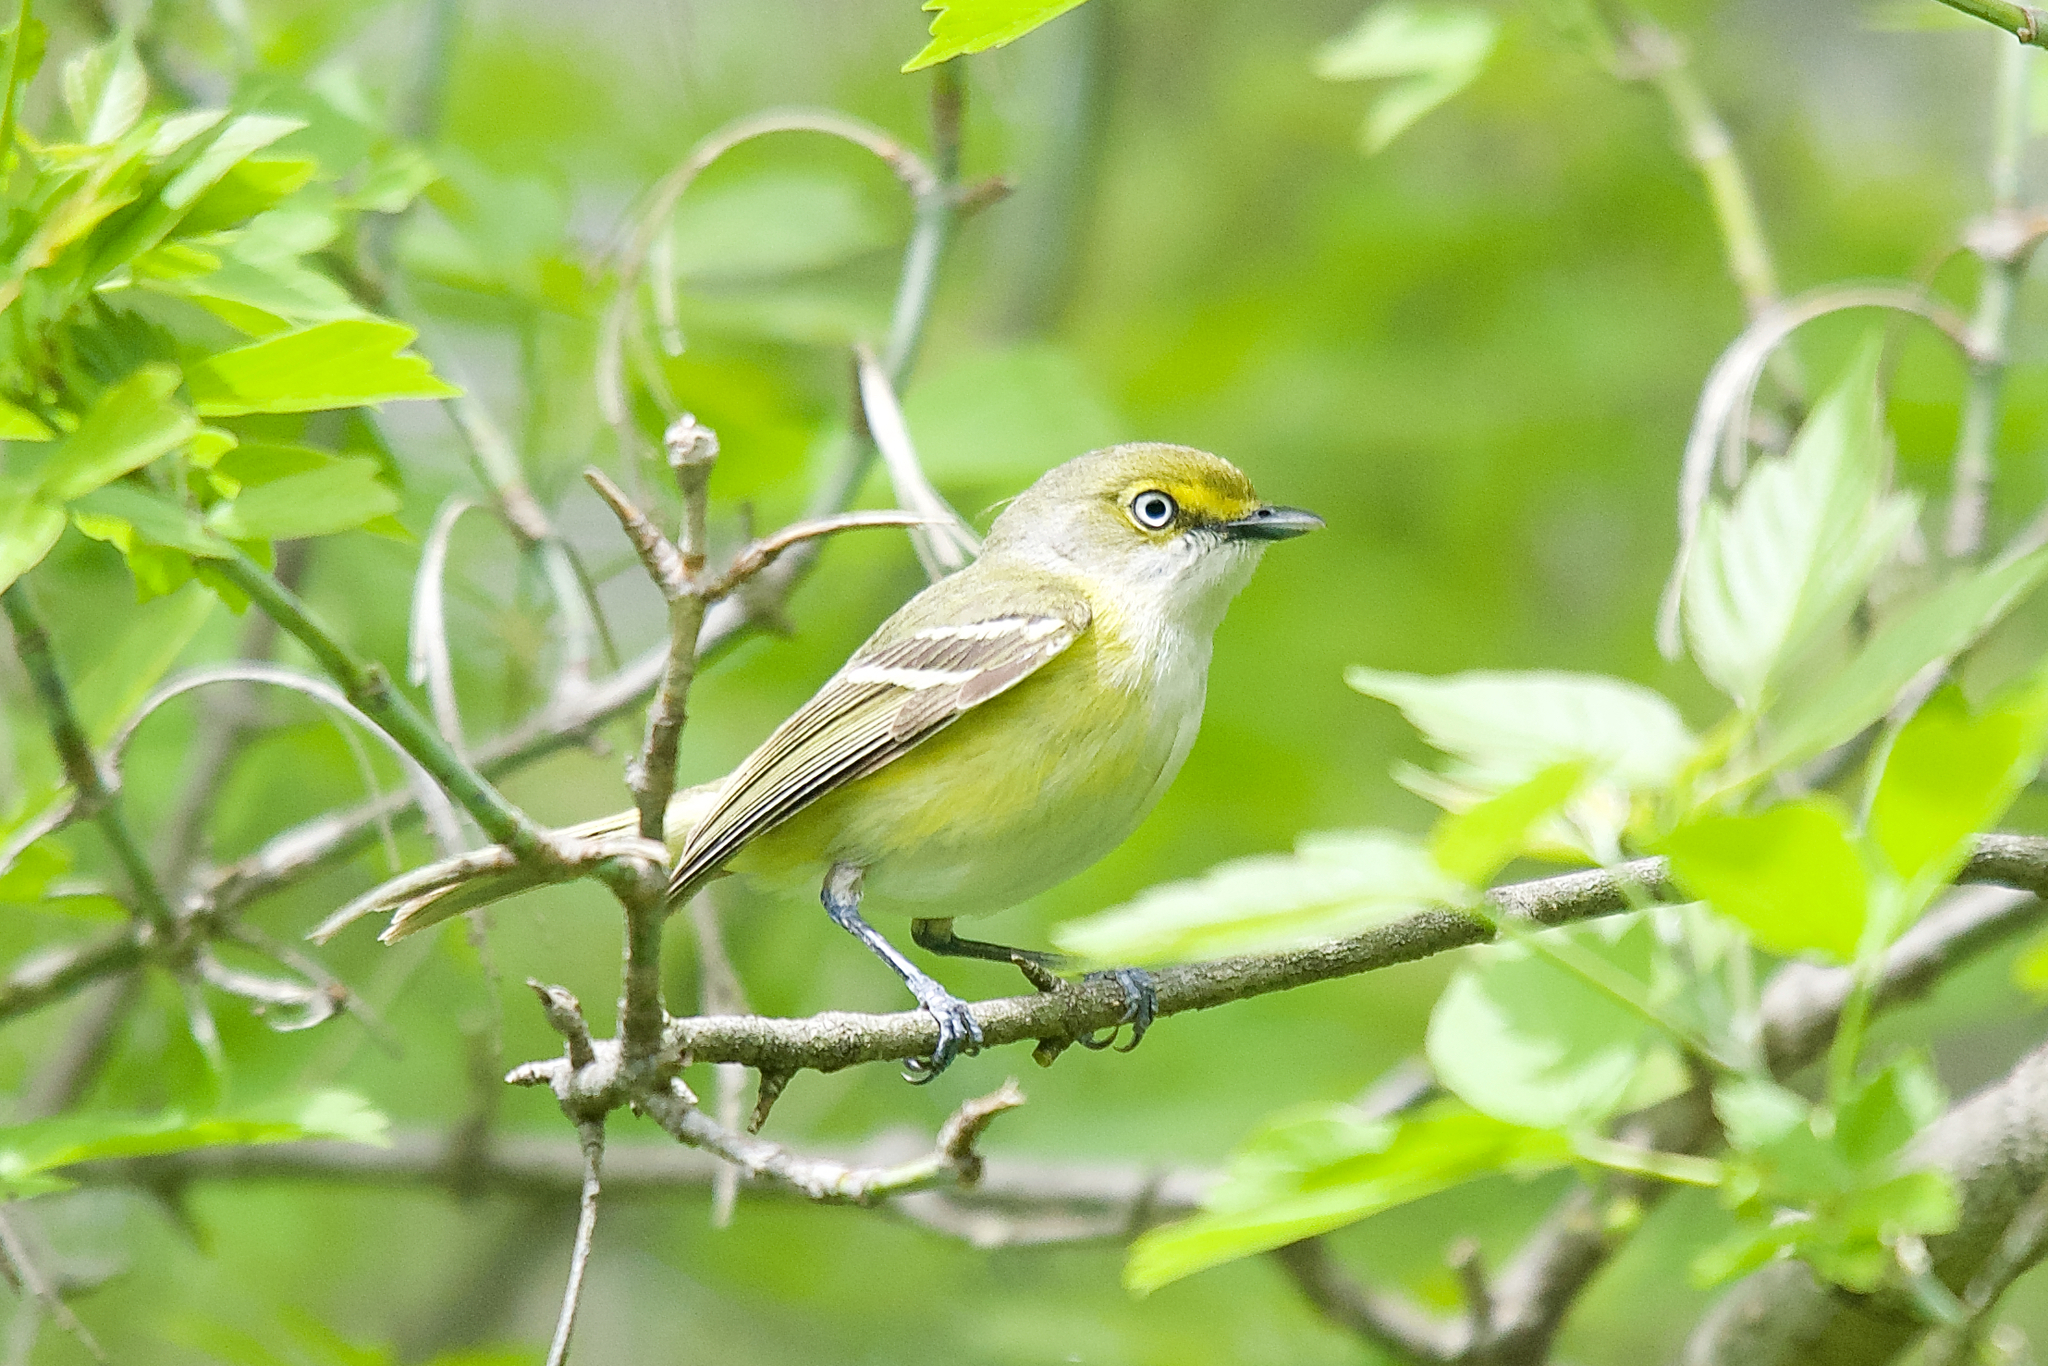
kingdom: Animalia
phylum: Chordata
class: Aves
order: Passeriformes
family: Vireonidae
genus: Vireo
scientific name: Vireo griseus
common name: White-eyed vireo
